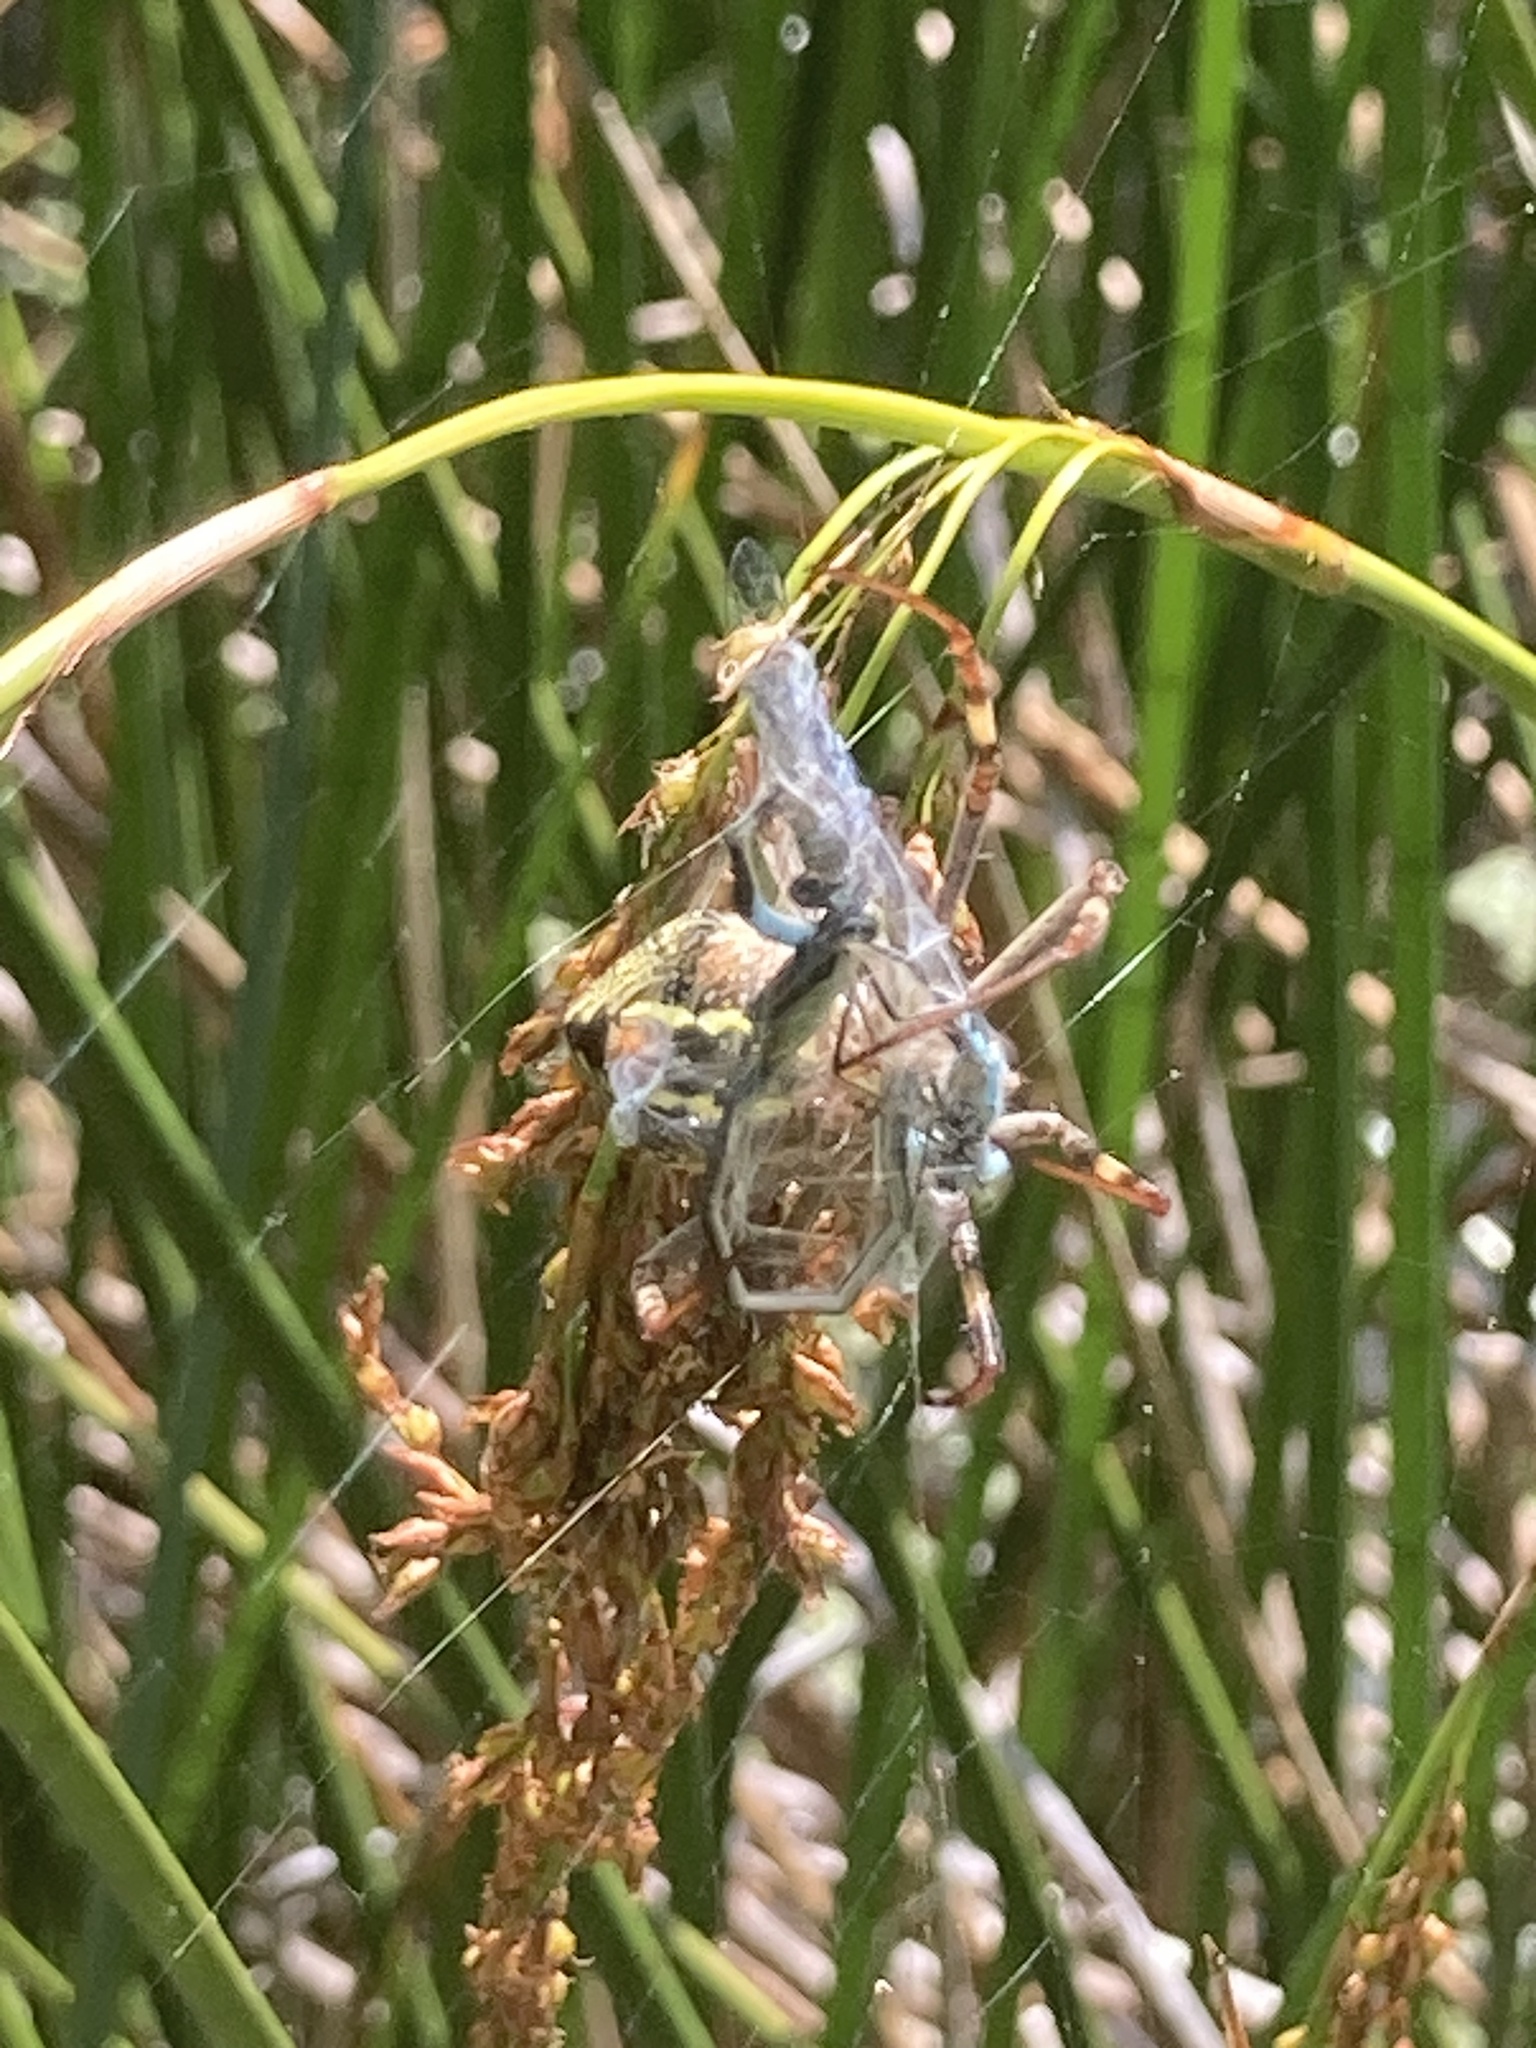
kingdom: Animalia
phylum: Arthropoda
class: Insecta
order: Odonata
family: Coenagrionidae
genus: Ischnura
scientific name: Ischnura heterosticta
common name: Common bluetail
